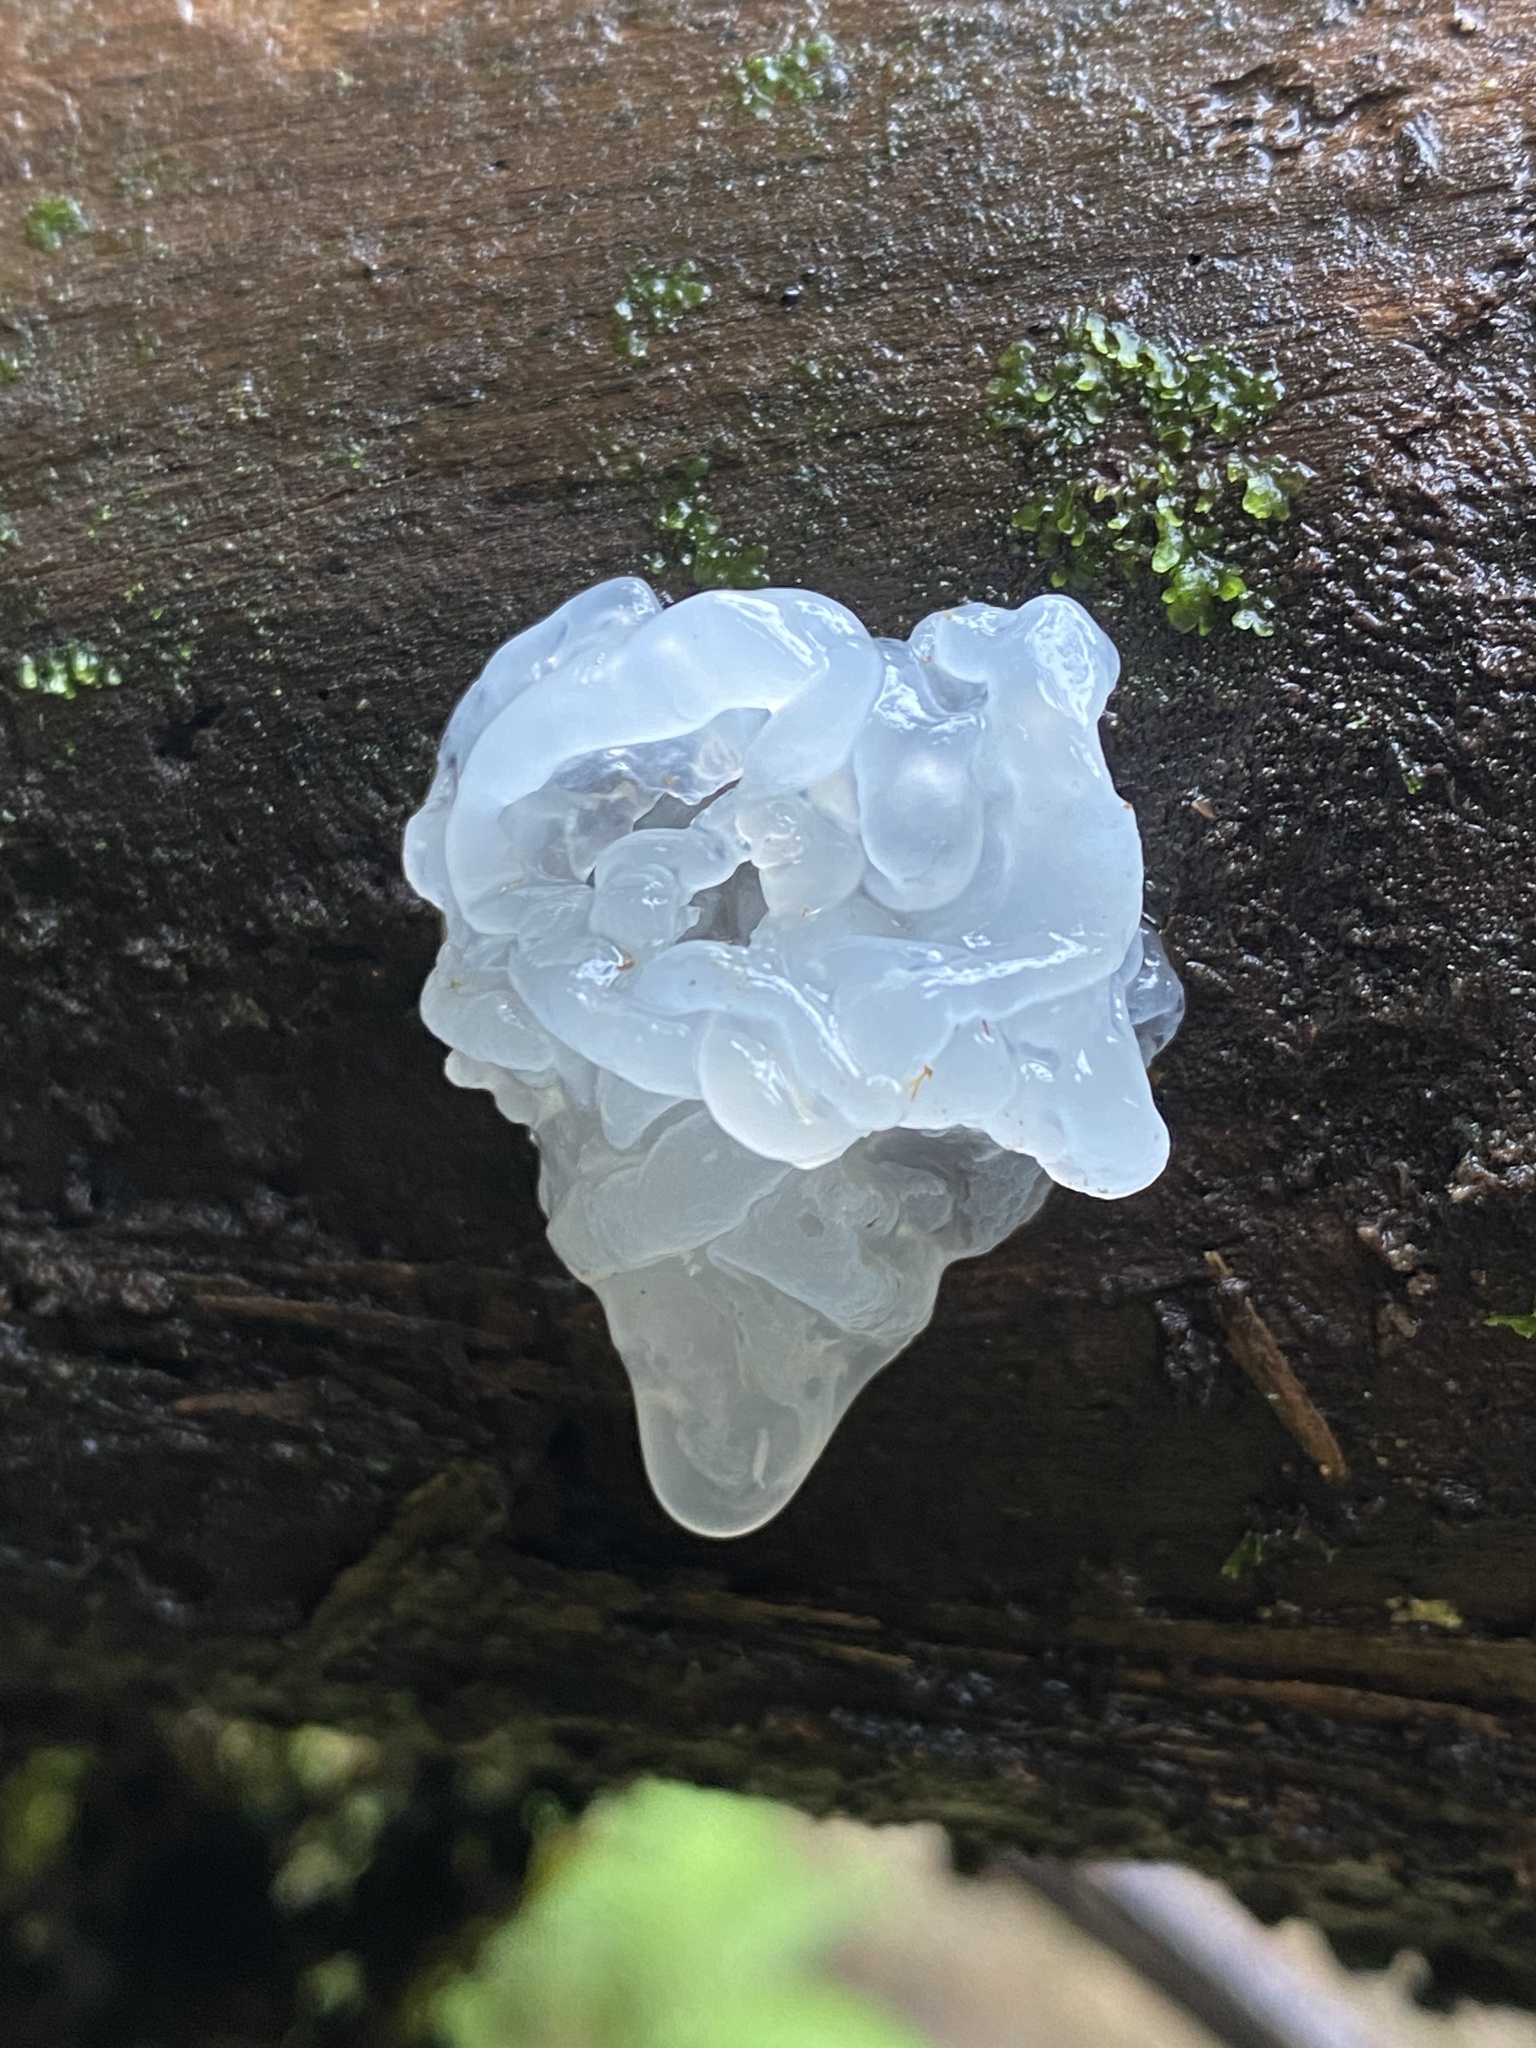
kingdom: Fungi
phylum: Basidiomycota
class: Tremellomycetes
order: Tremellales
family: Tremellaceae
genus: Tremella
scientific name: Tremella fuciformis
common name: Snow fungus
